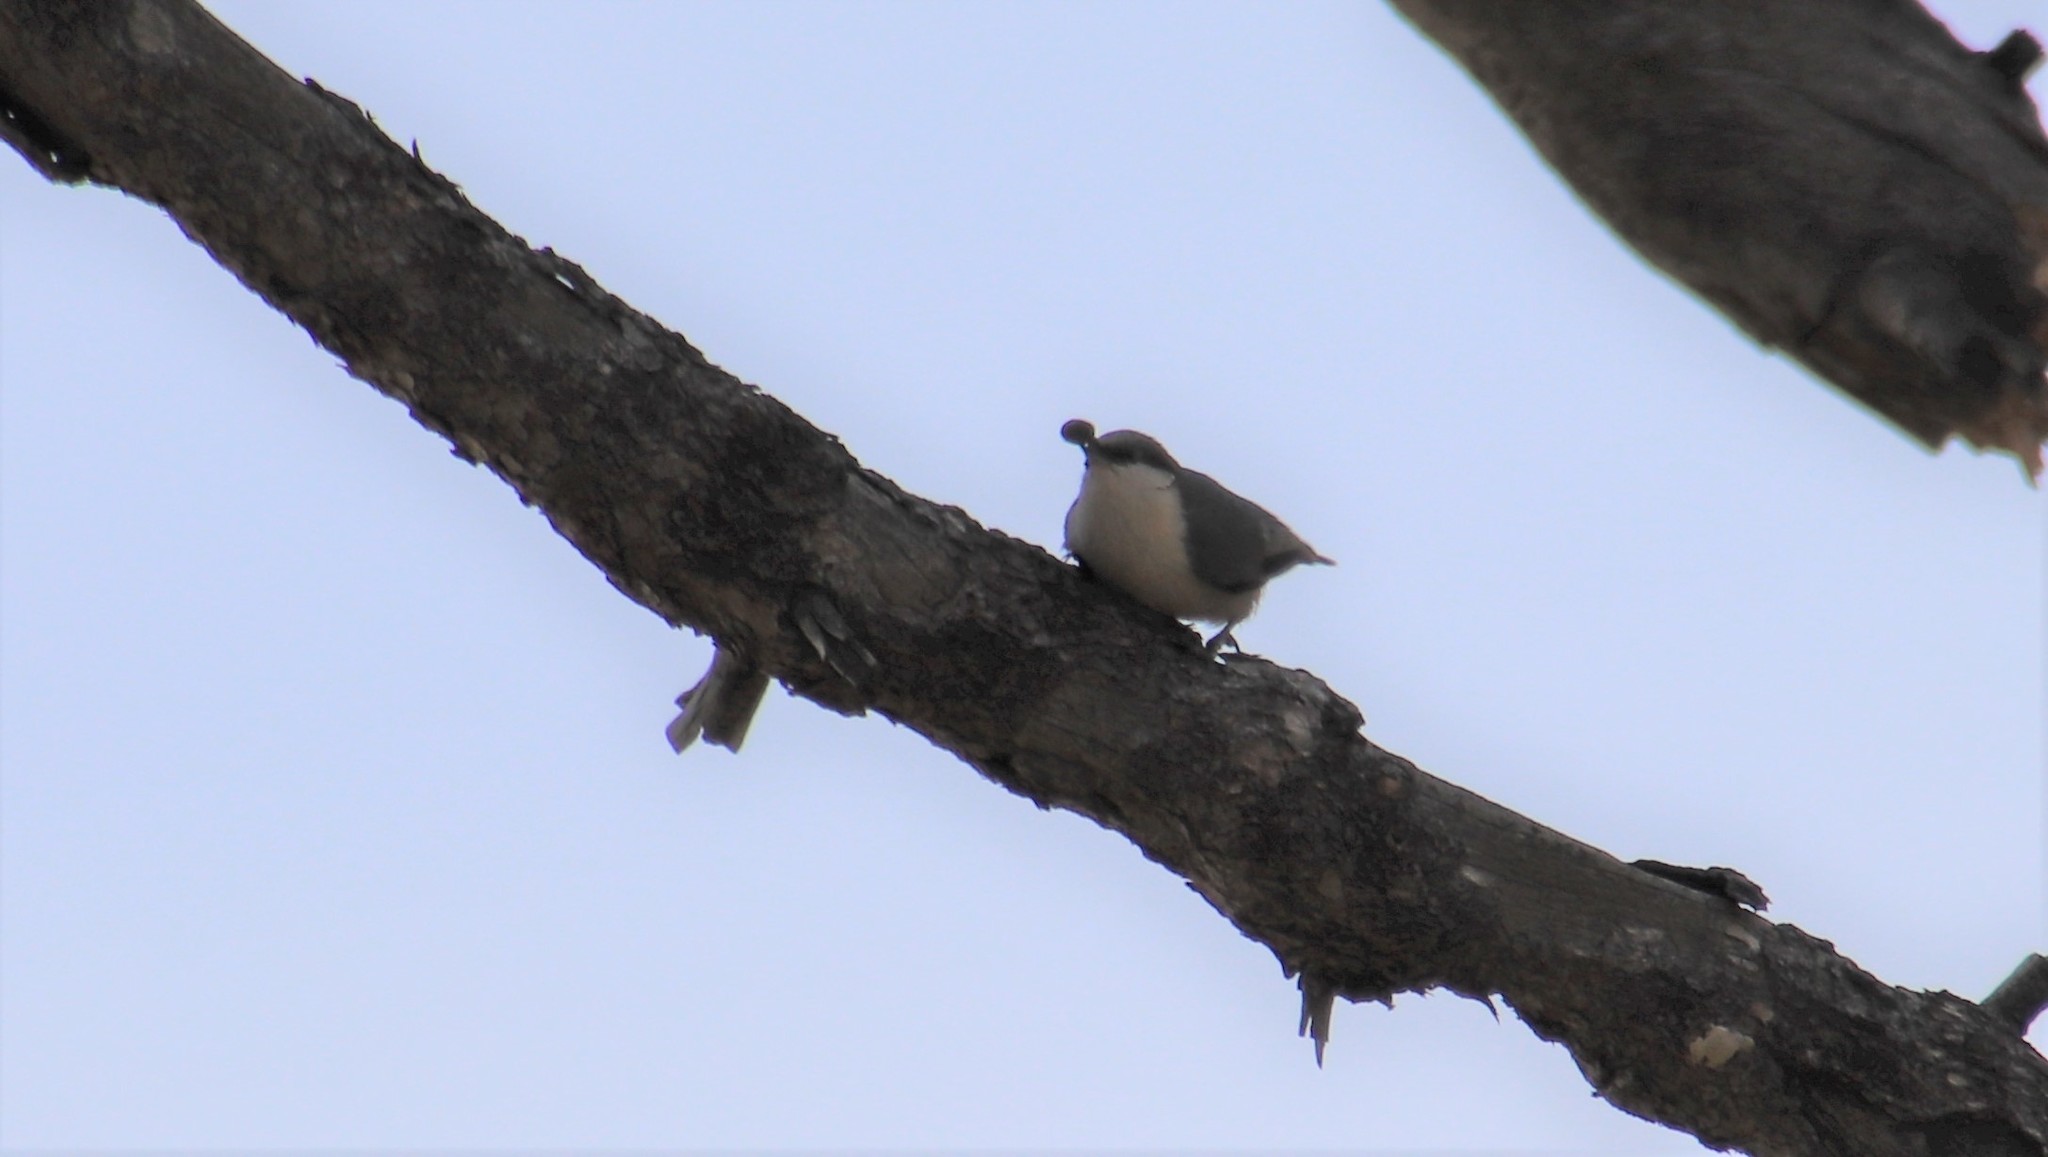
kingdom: Animalia
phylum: Chordata
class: Aves
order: Passeriformes
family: Sittidae
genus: Sitta
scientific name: Sitta pygmaea
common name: Pygmy nuthatch
